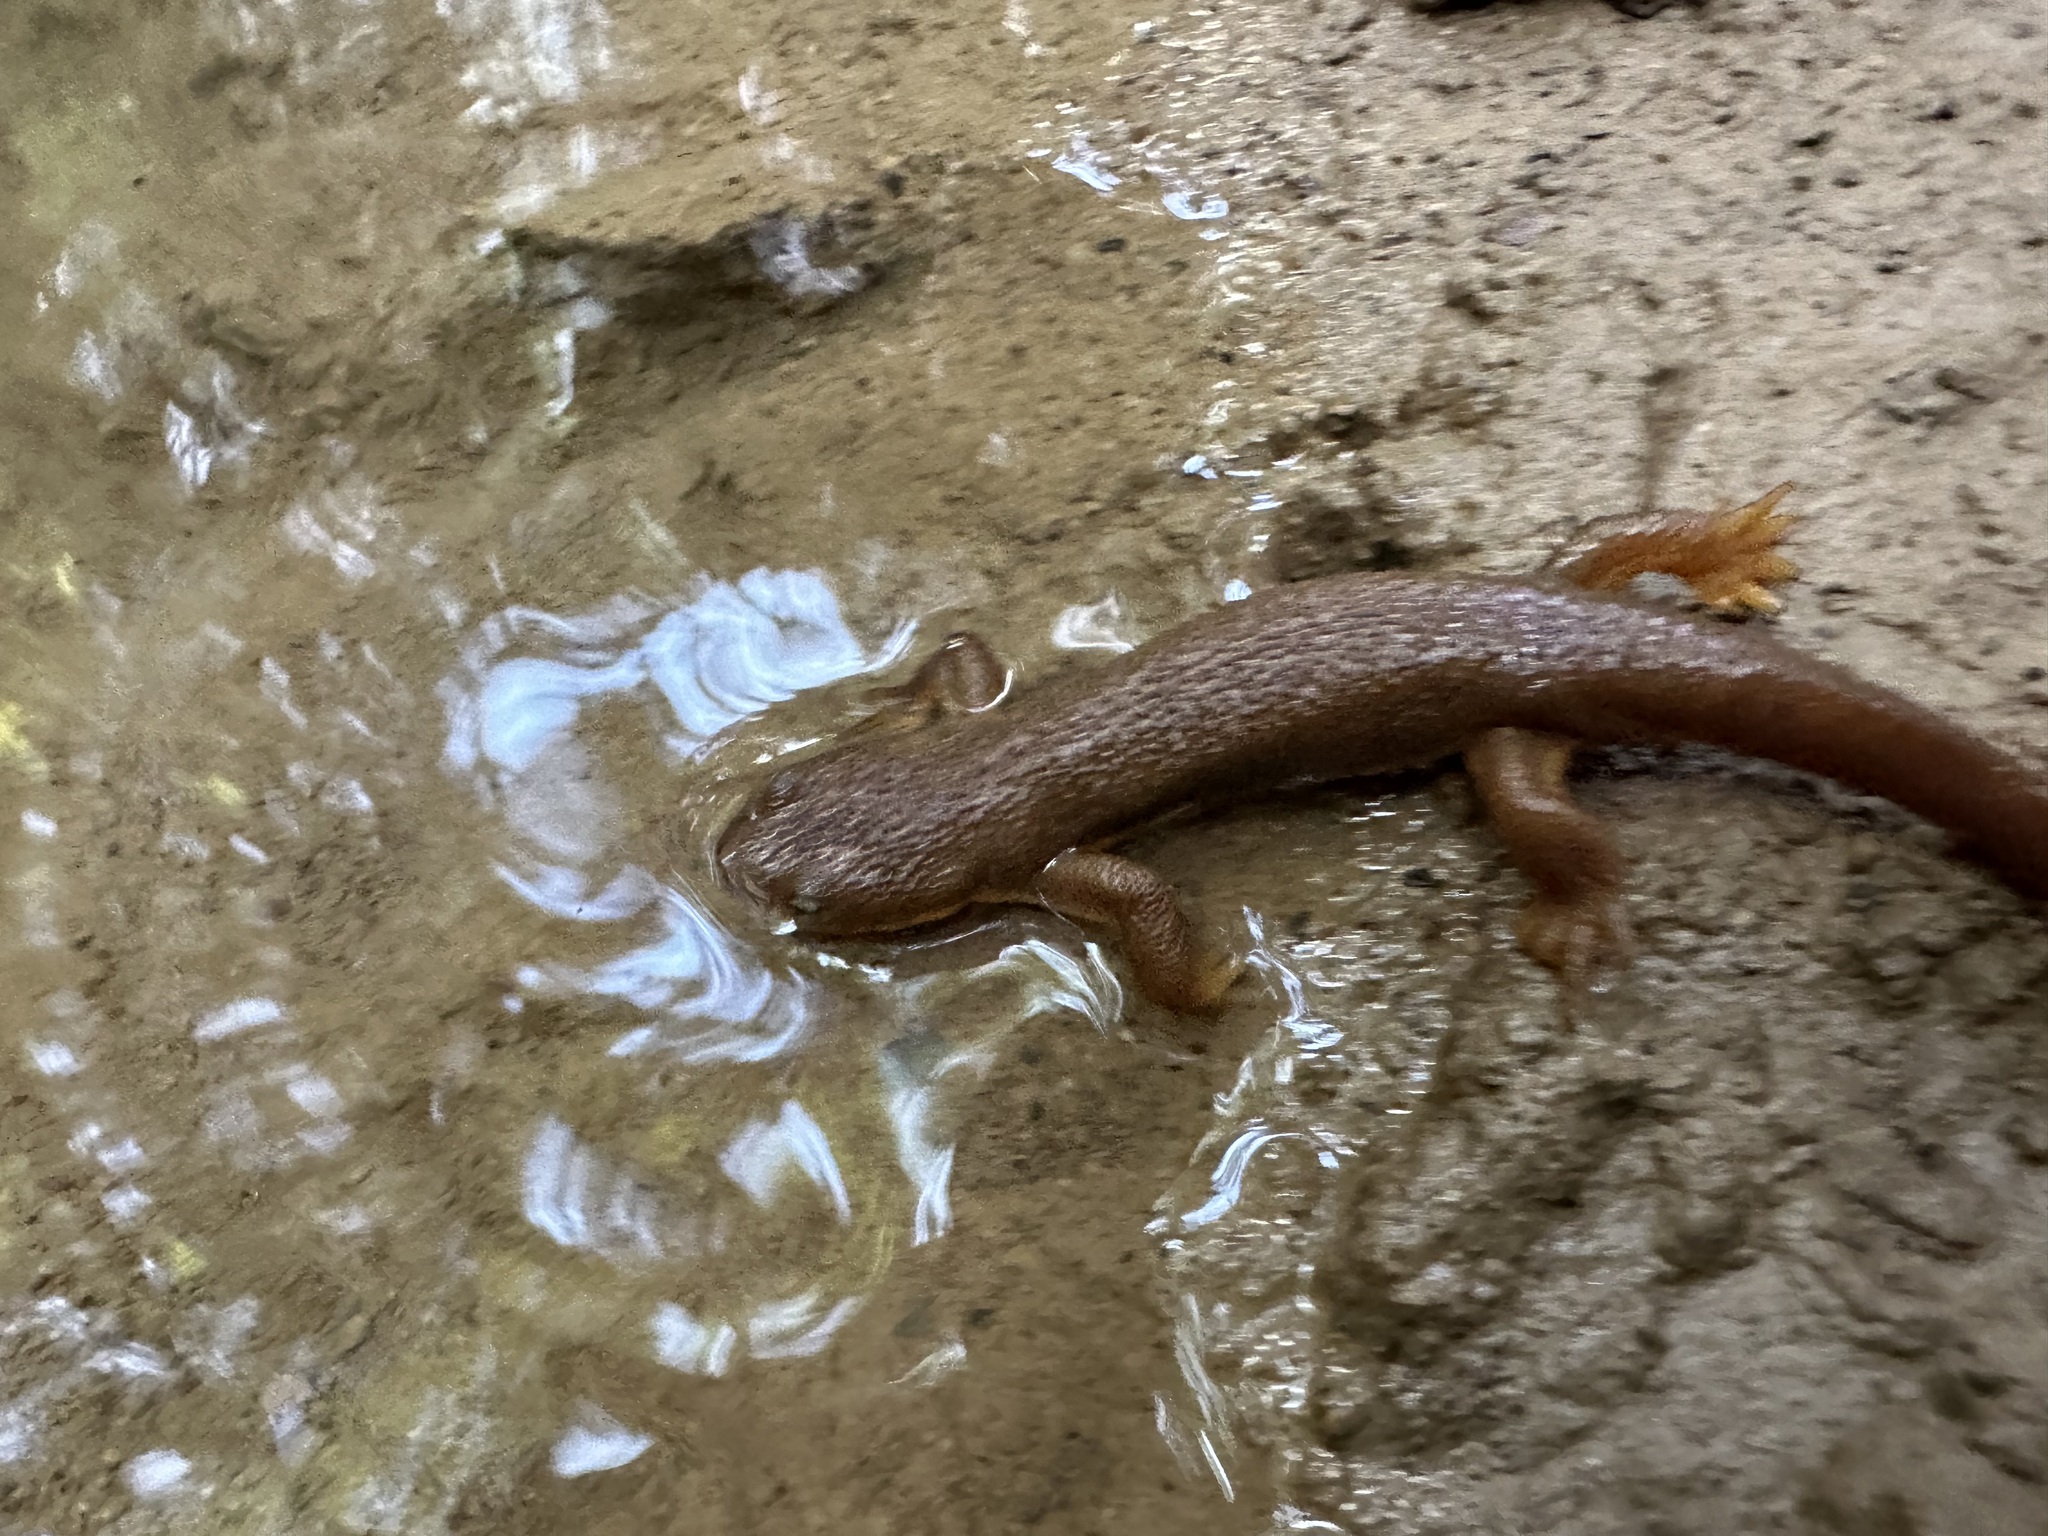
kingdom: Animalia
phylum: Chordata
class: Amphibia
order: Caudata
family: Salamandridae
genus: Taricha
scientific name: Taricha granulosa
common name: Roughskin newt
